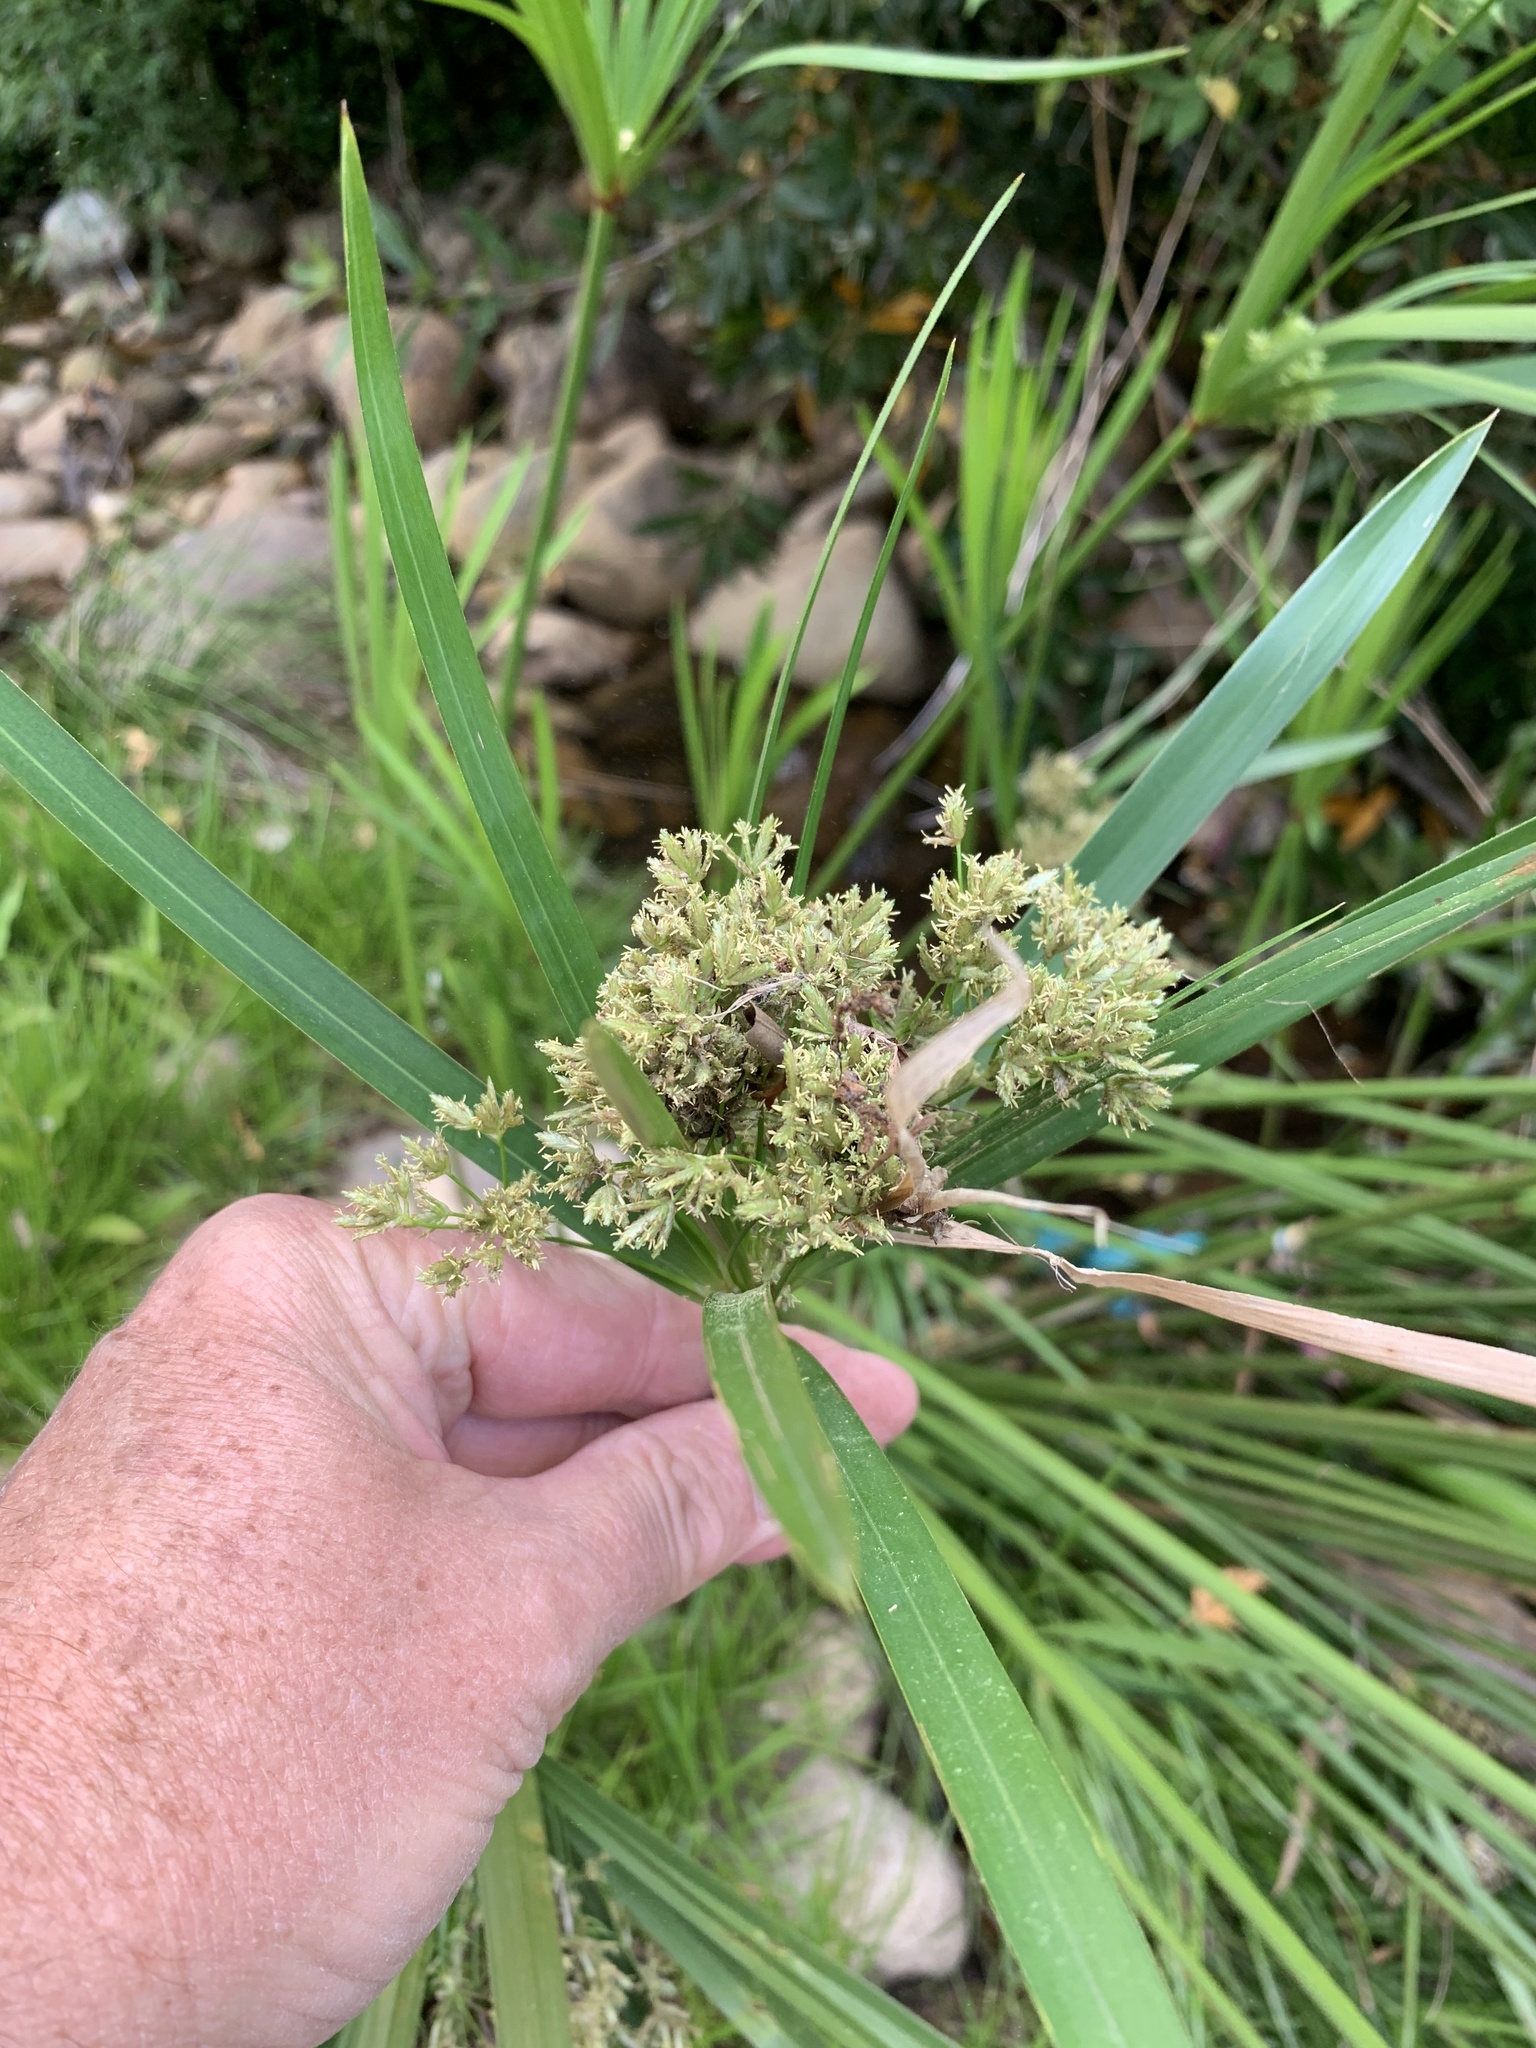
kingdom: Plantae
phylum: Tracheophyta
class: Liliopsida
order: Poales
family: Cyperaceae
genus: Cyperus
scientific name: Cyperus textilis
